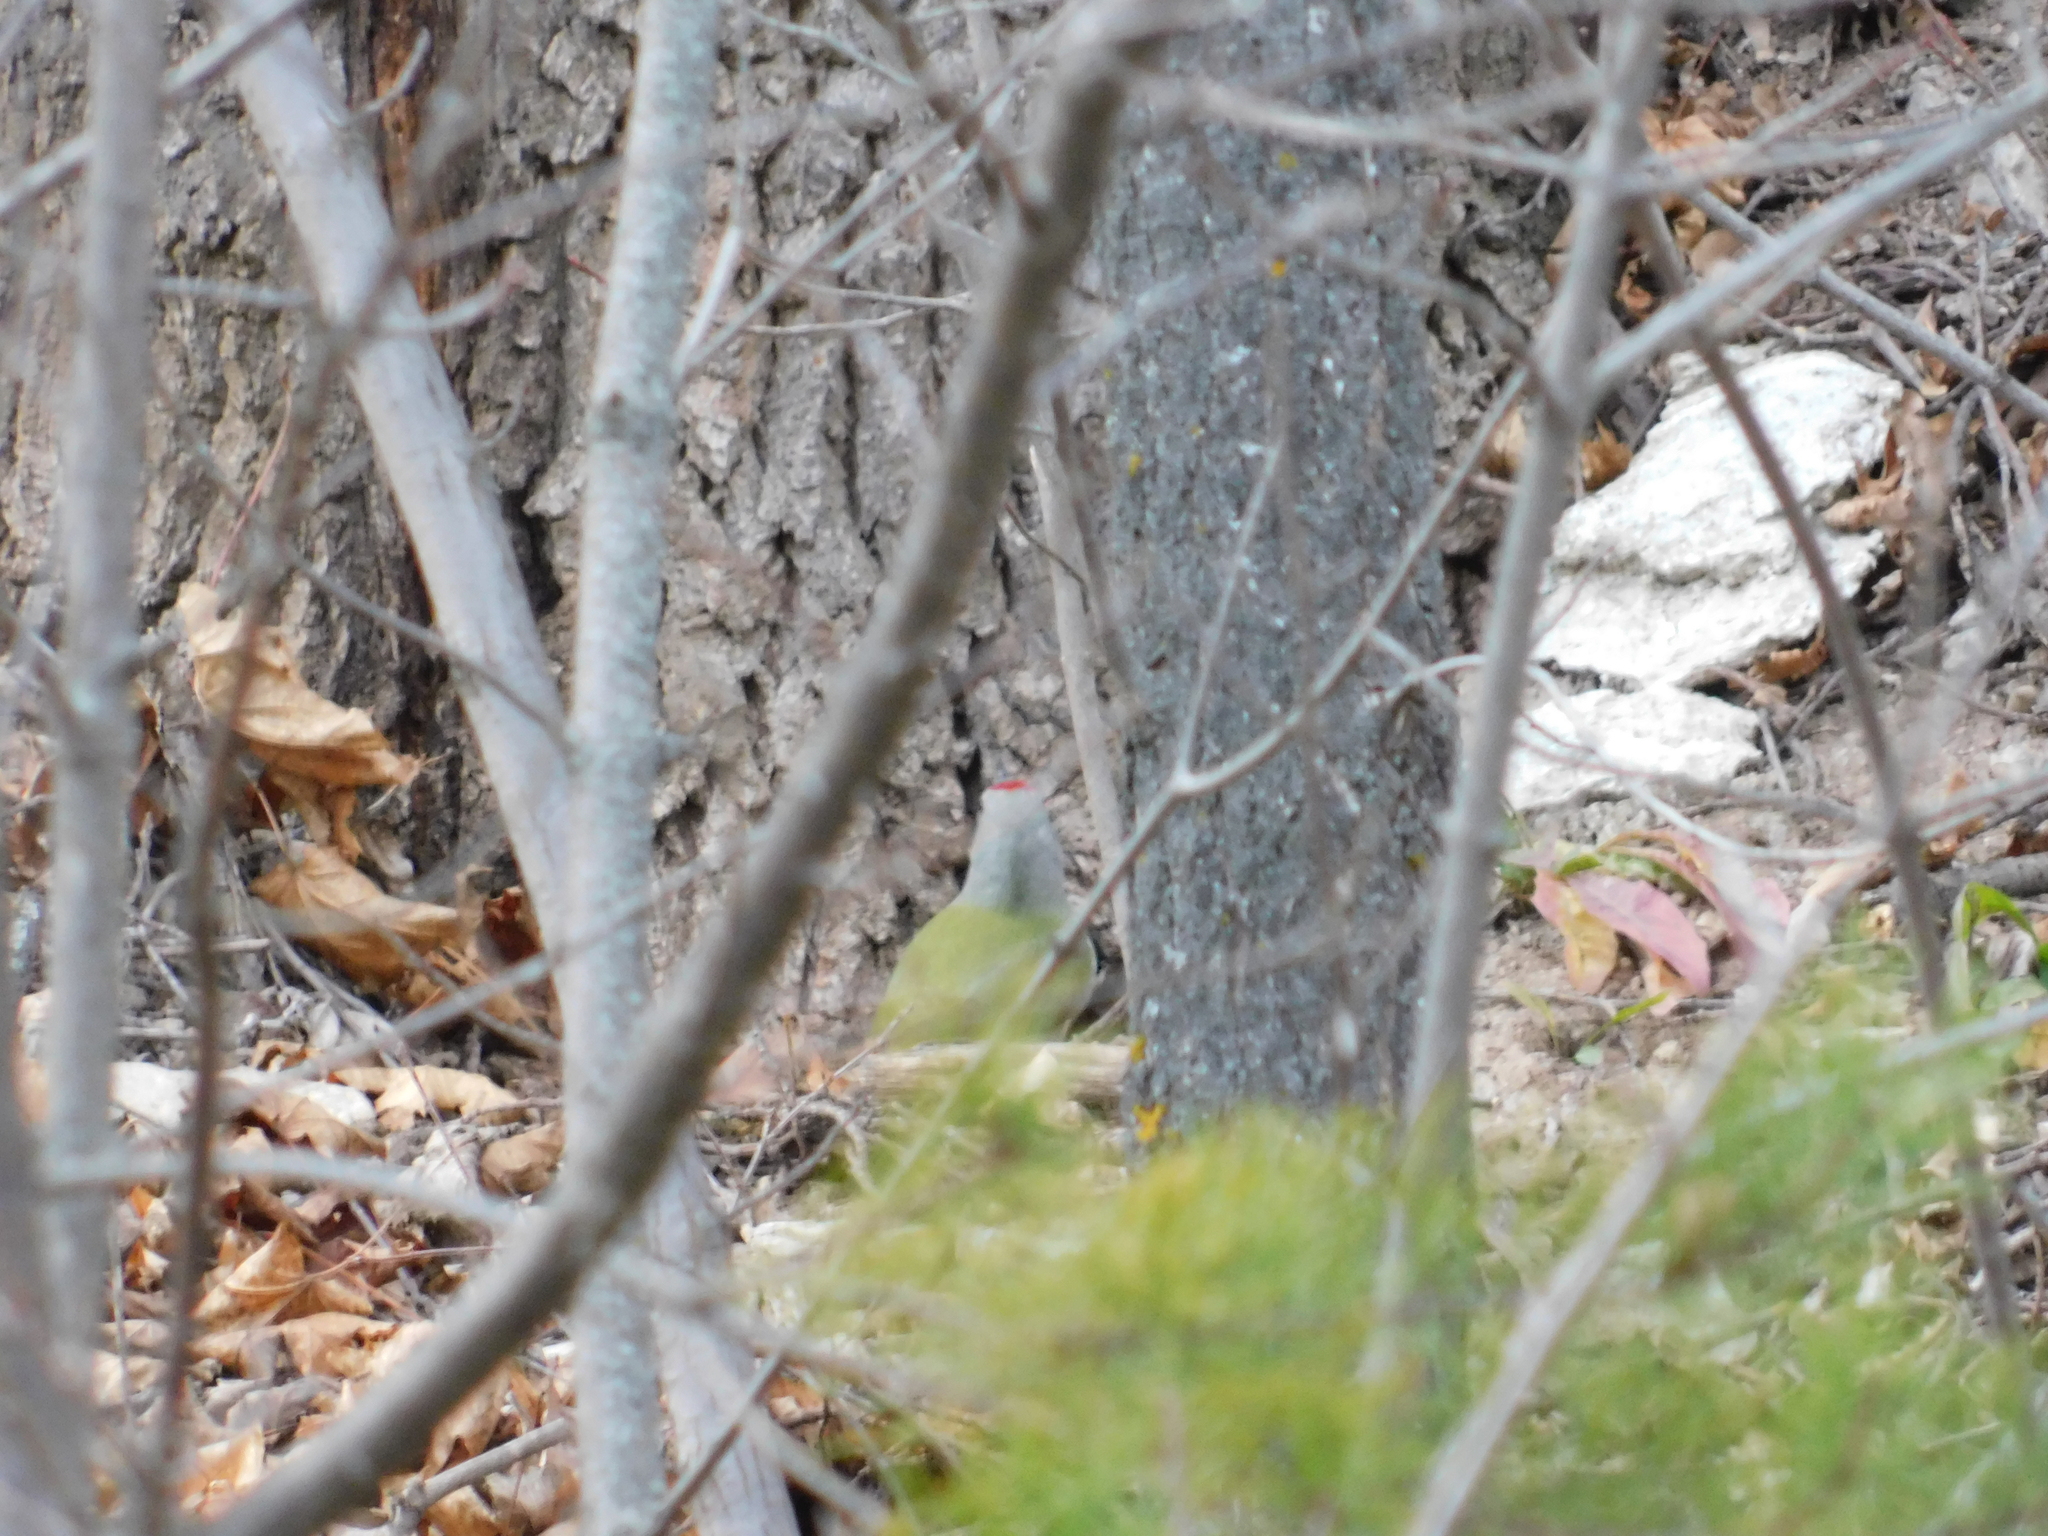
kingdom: Animalia
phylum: Chordata
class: Aves
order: Piciformes
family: Picidae
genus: Picus
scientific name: Picus canus
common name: Grey-headed woodpecker
